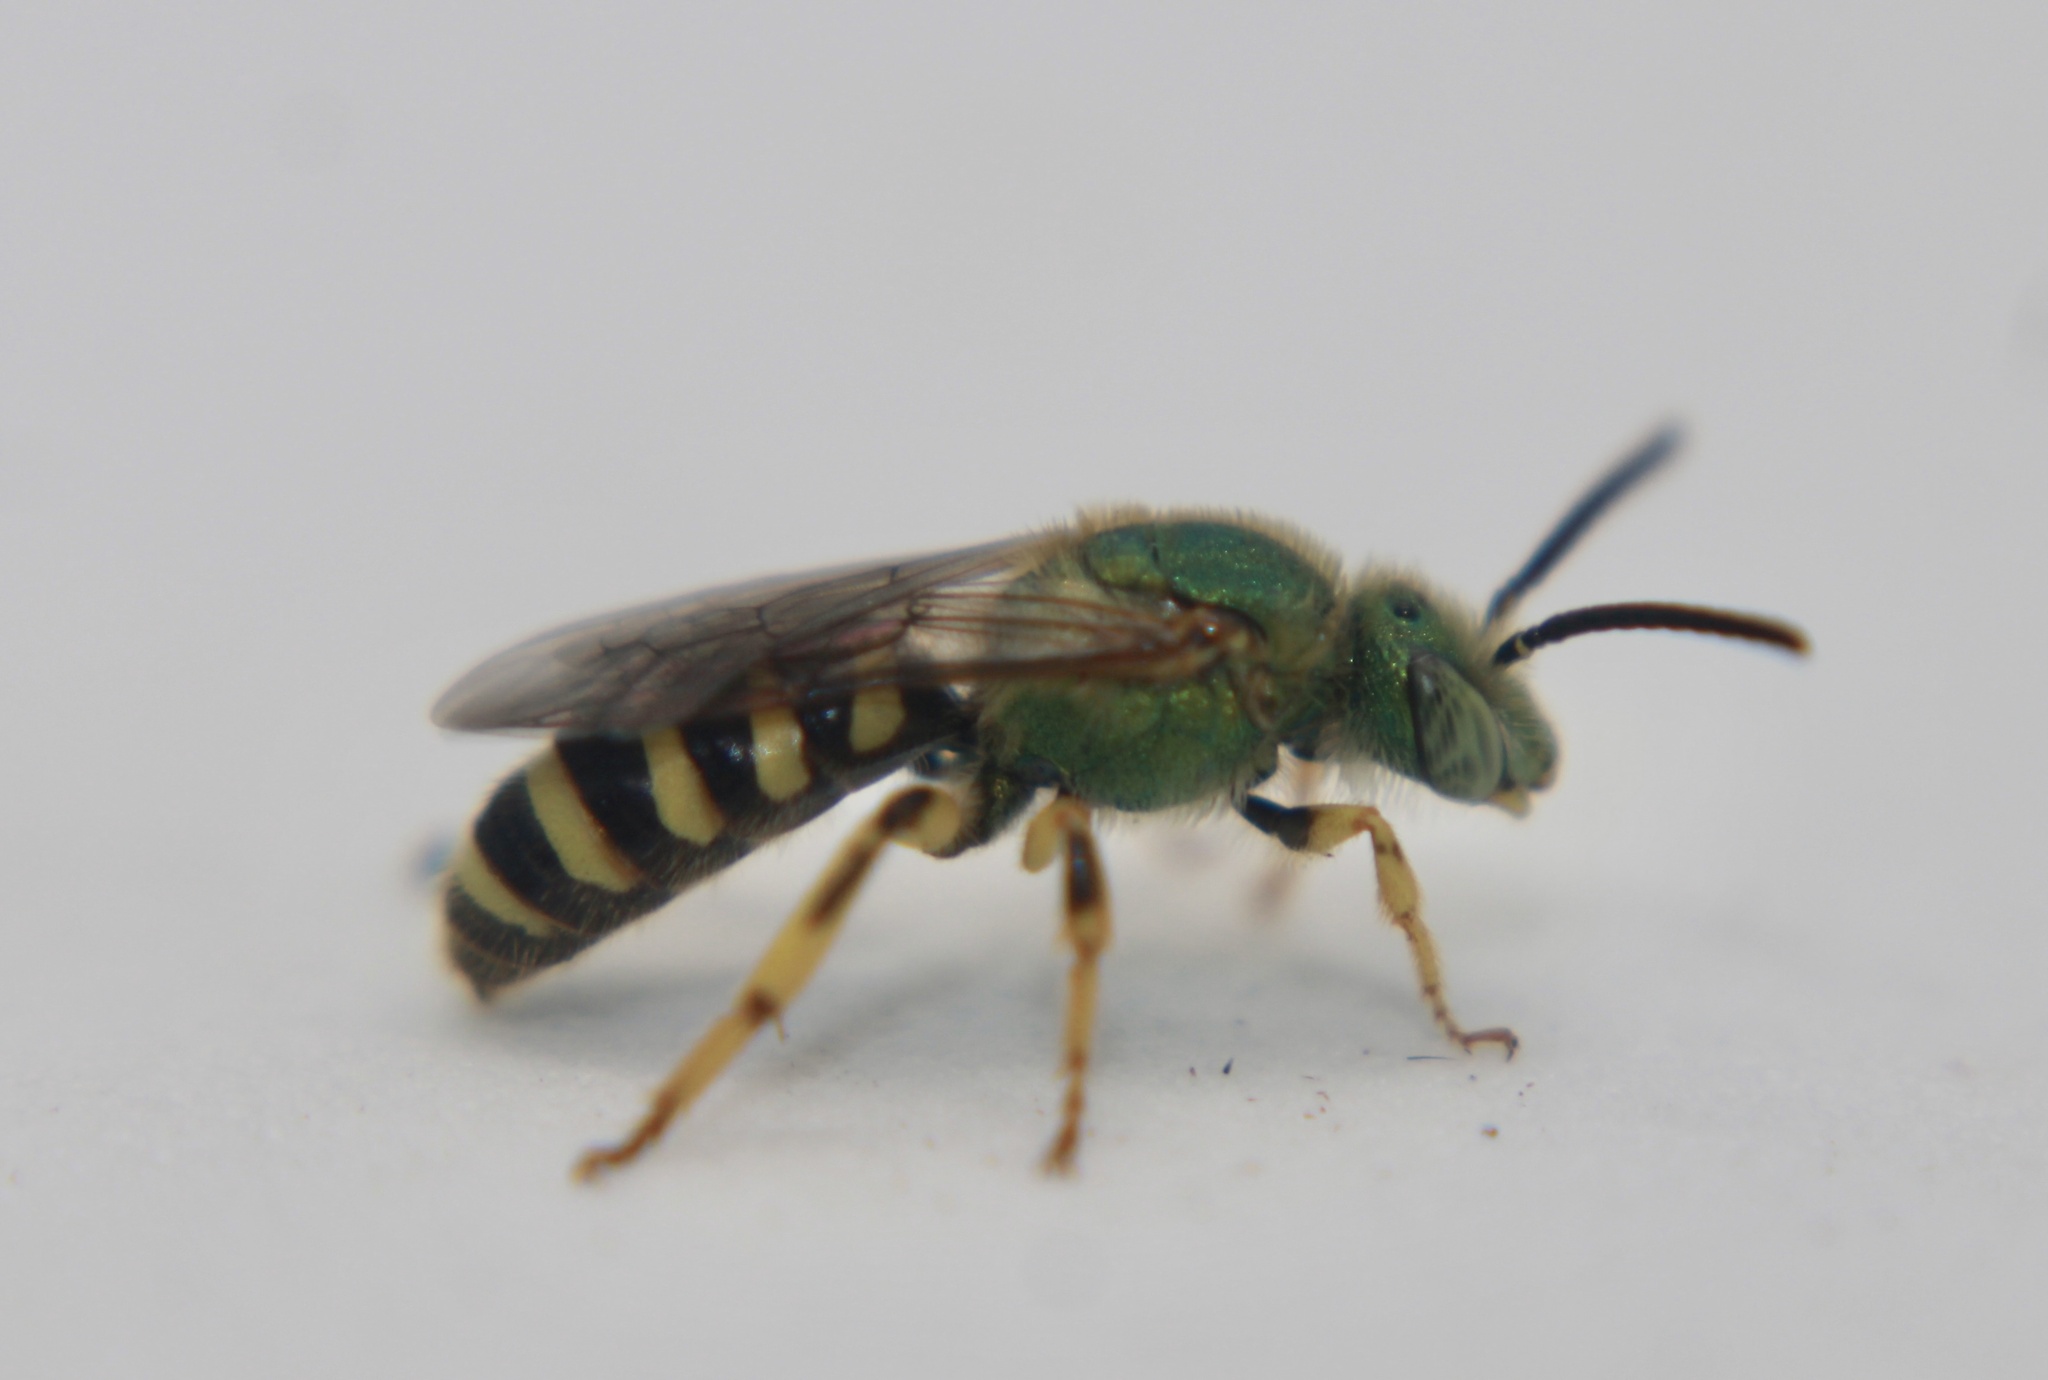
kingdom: Animalia
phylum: Arthropoda
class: Insecta
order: Hymenoptera
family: Halictidae
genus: Agapostemon
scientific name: Agapostemon virescens
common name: Bicolored striped sweat bee
